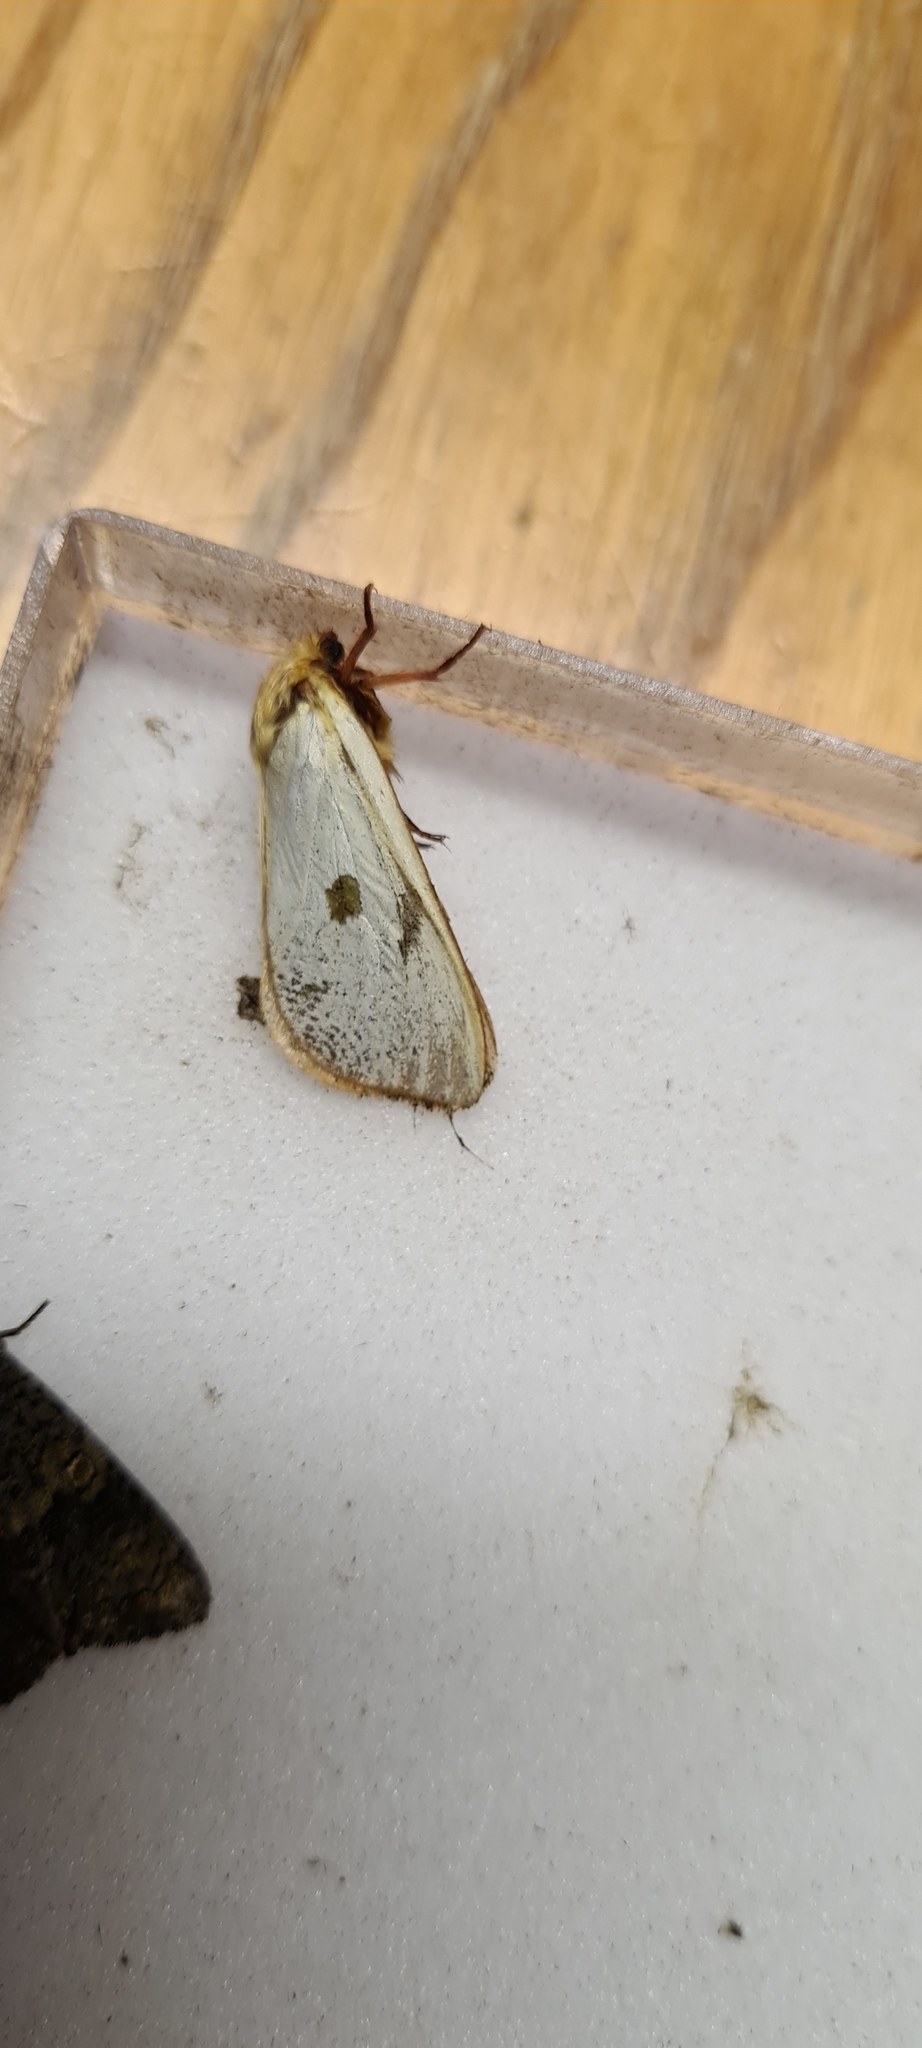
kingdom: Animalia
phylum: Arthropoda
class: Insecta
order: Lepidoptera
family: Hepialidae
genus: Hepialus
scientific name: Hepialus humuli
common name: Ghost moth
